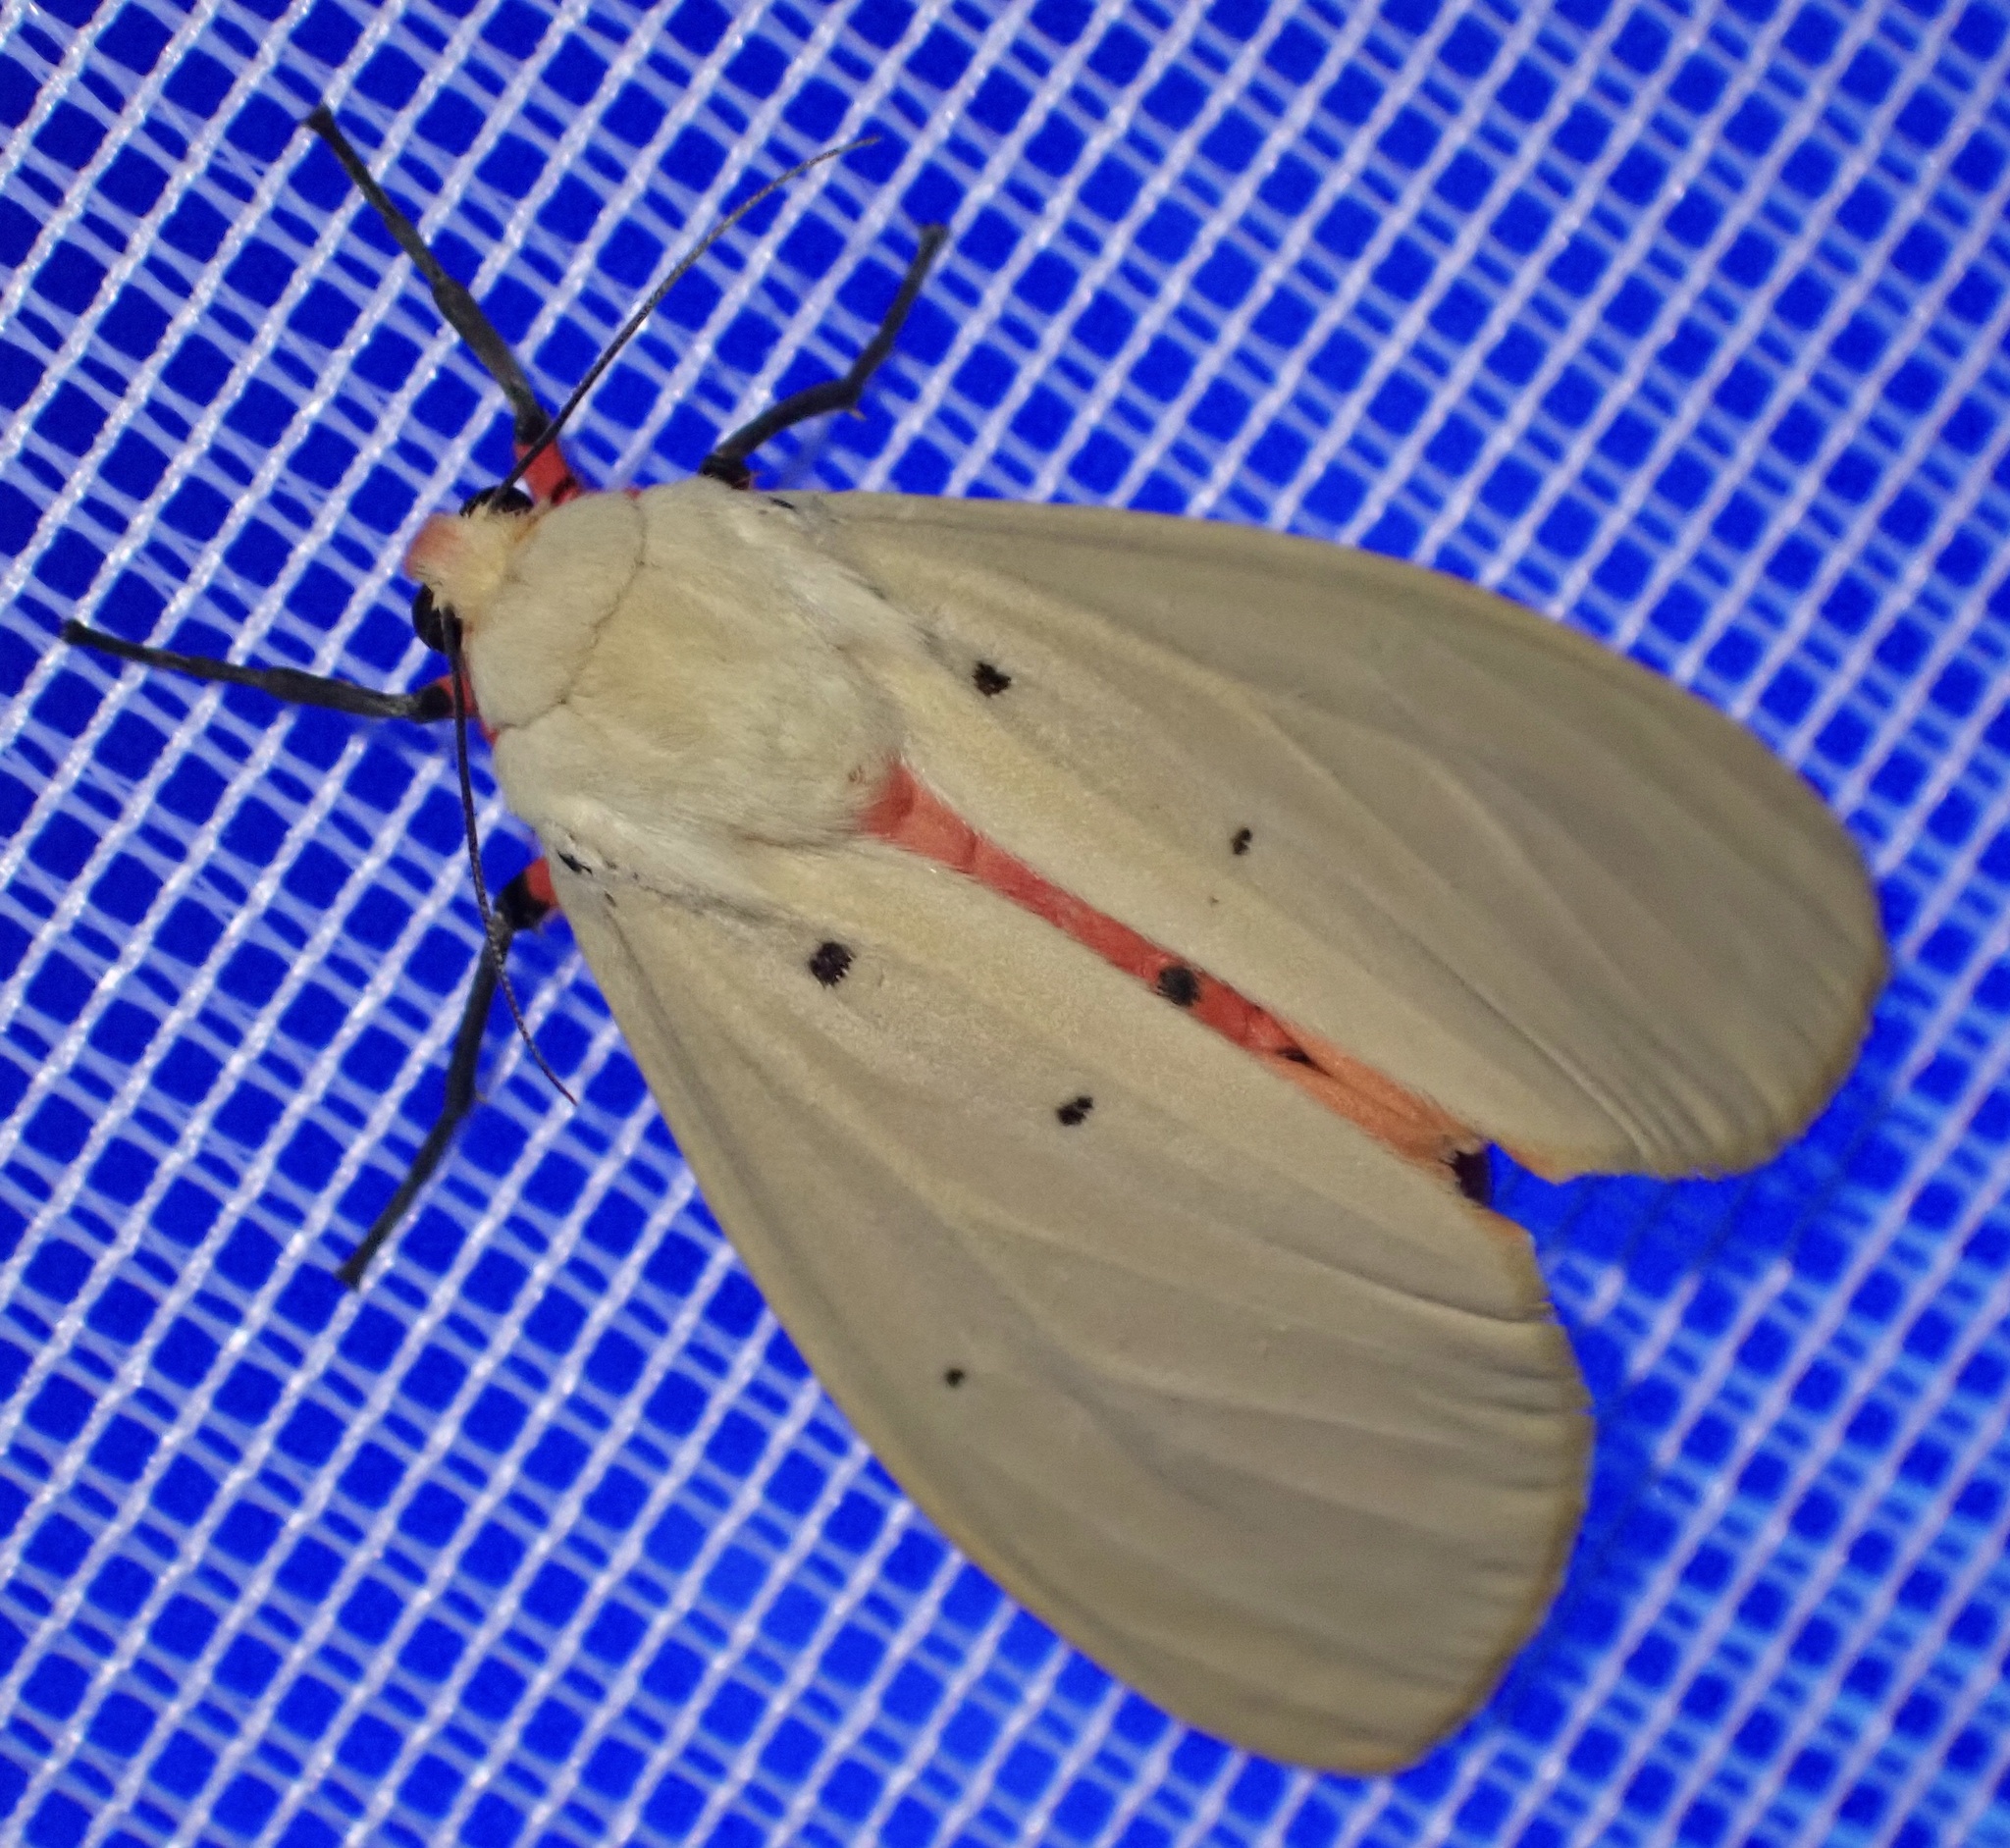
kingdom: Animalia
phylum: Arthropoda
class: Insecta
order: Lepidoptera
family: Erebidae
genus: Nicetosoma
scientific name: Nicetosoma
